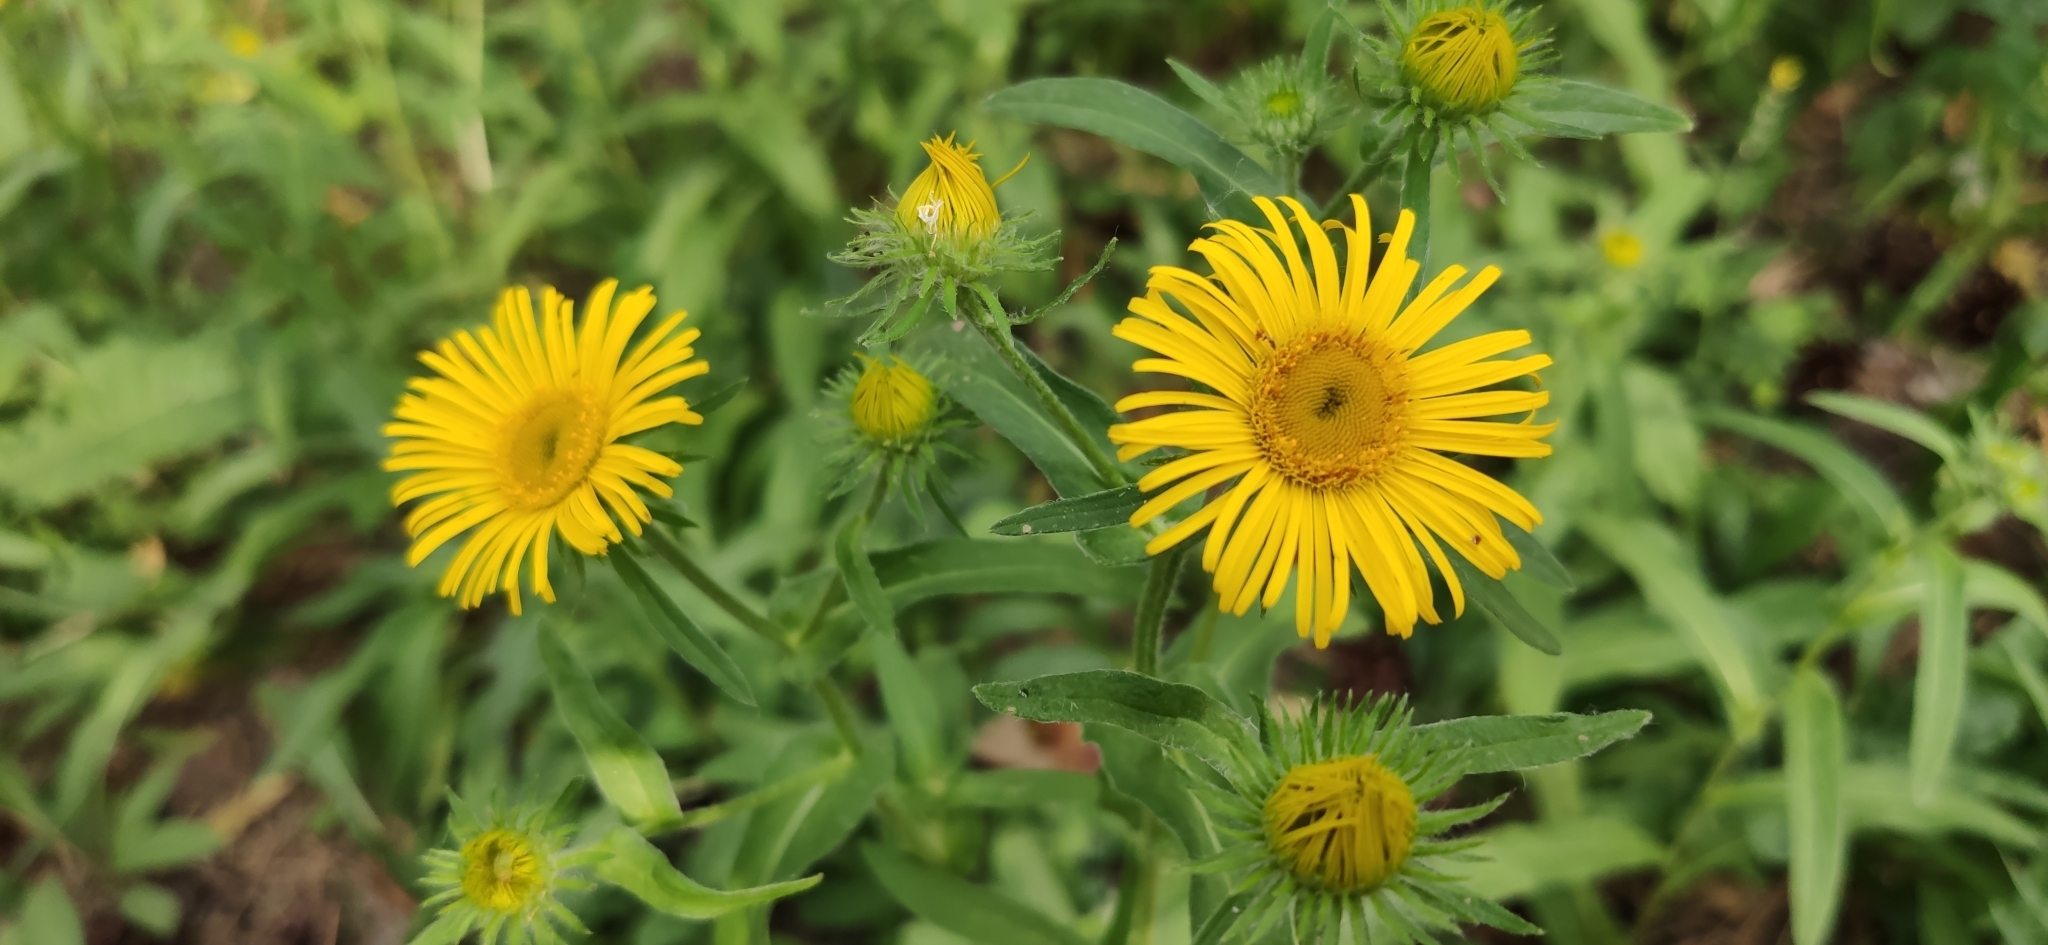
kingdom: Plantae
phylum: Tracheophyta
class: Magnoliopsida
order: Asterales
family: Asteraceae
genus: Pentanema
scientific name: Pentanema britannicum
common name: British elecampane
